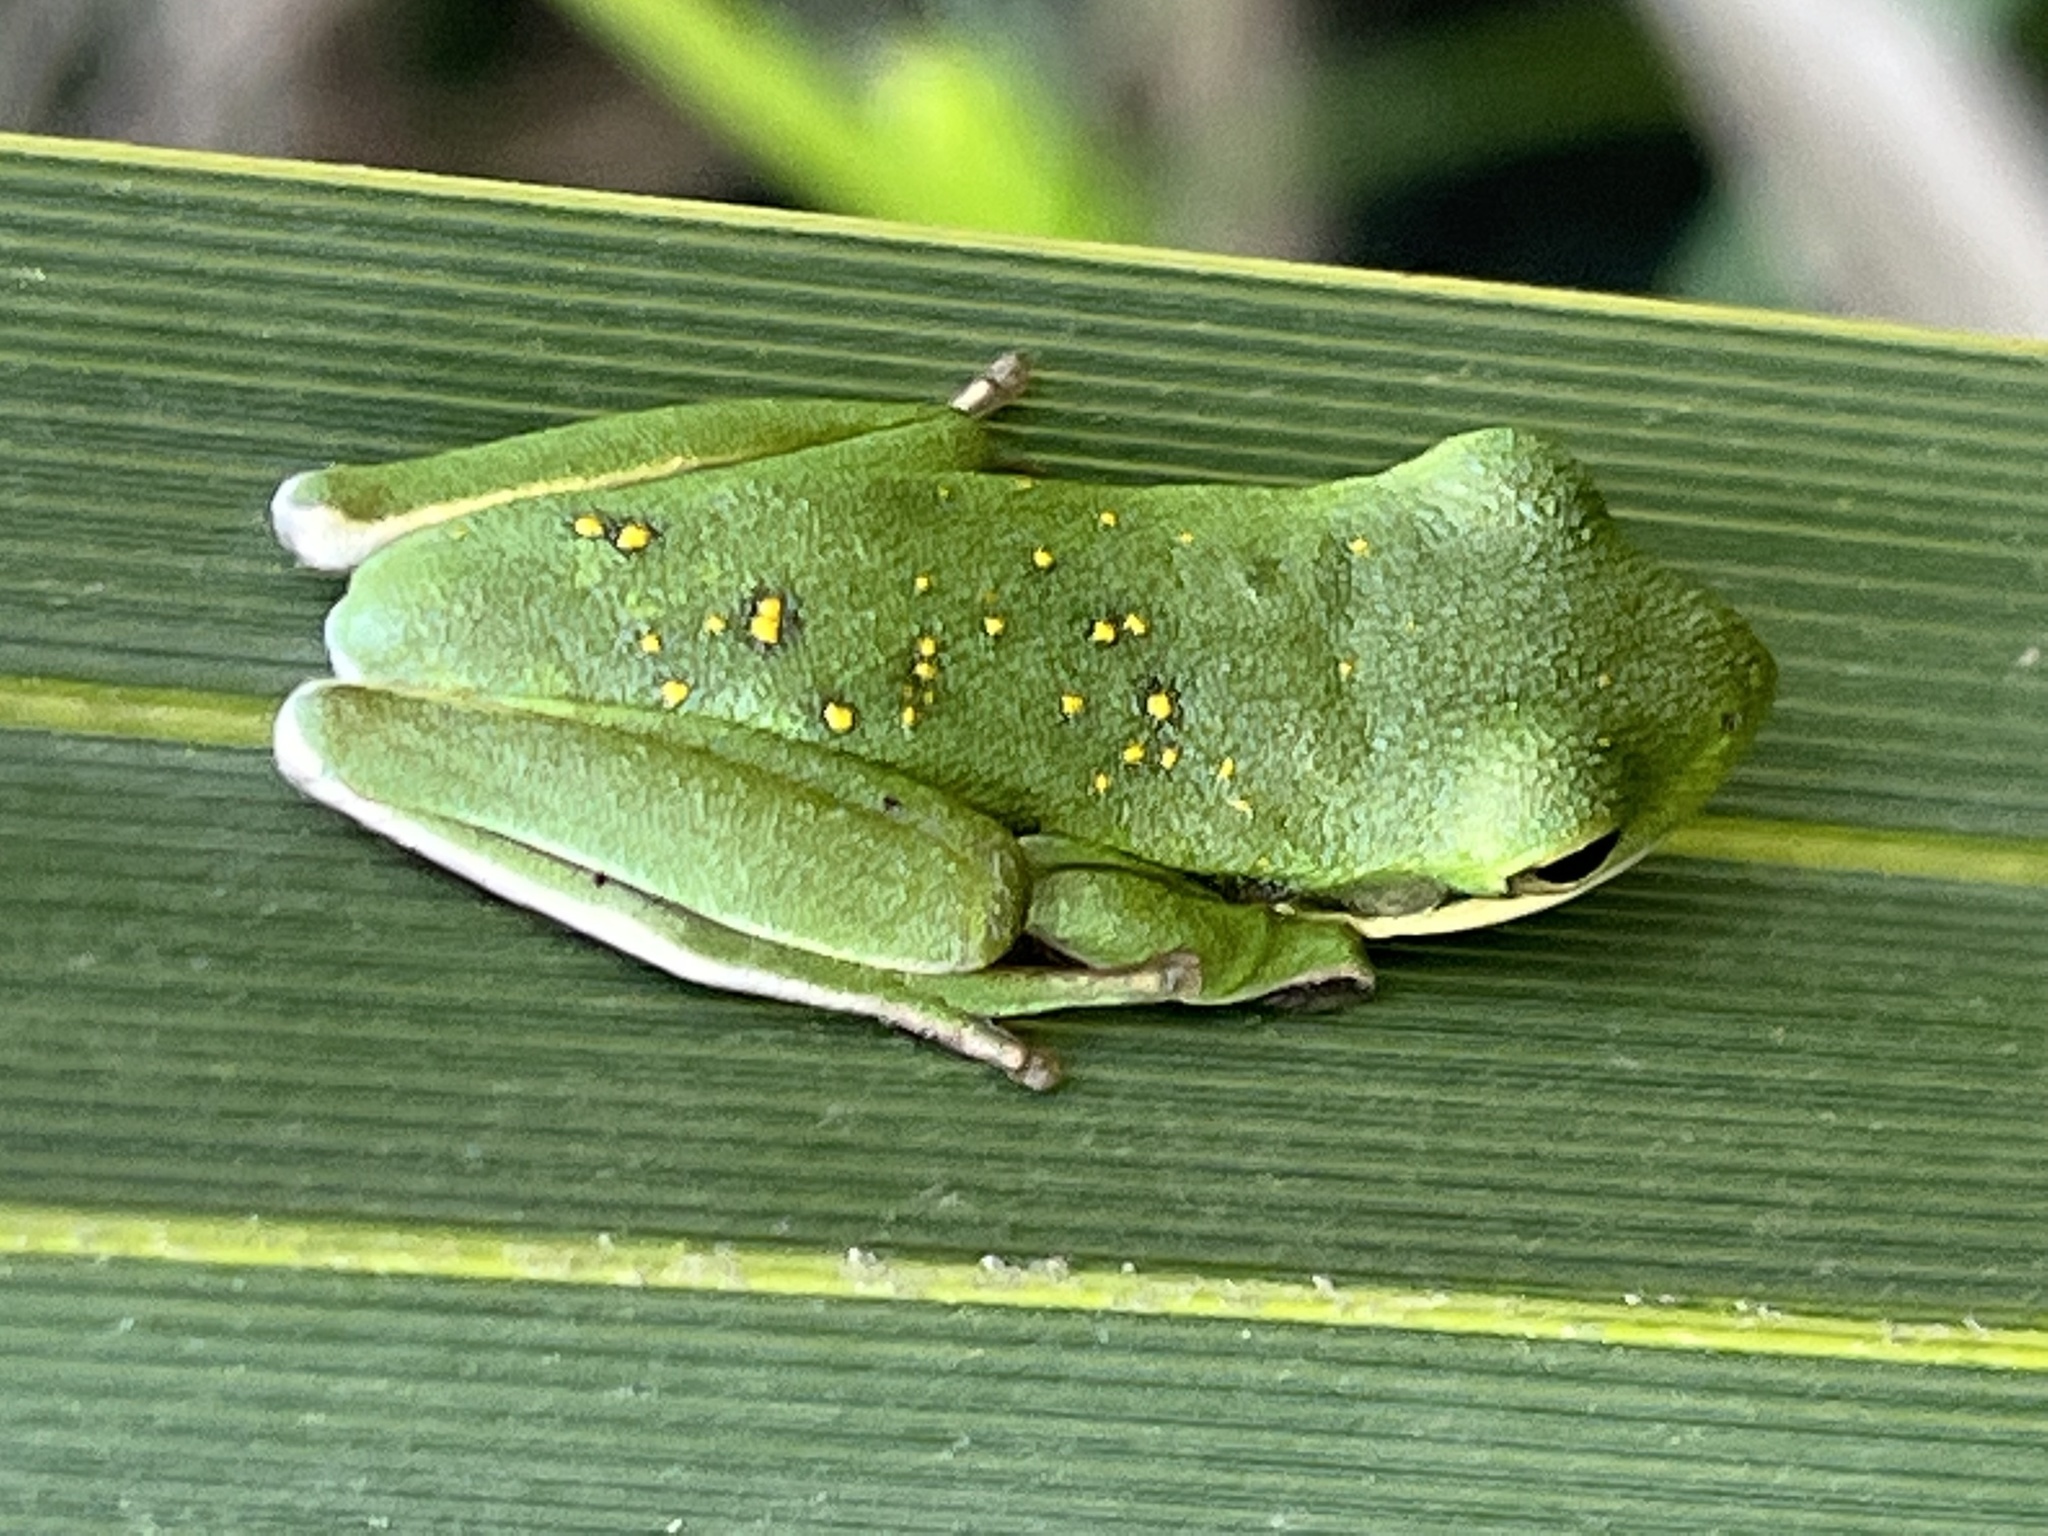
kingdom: Animalia
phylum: Chordata
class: Amphibia
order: Anura
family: Hylidae
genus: Dryophytes
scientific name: Dryophytes cinereus
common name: Green treefrog
